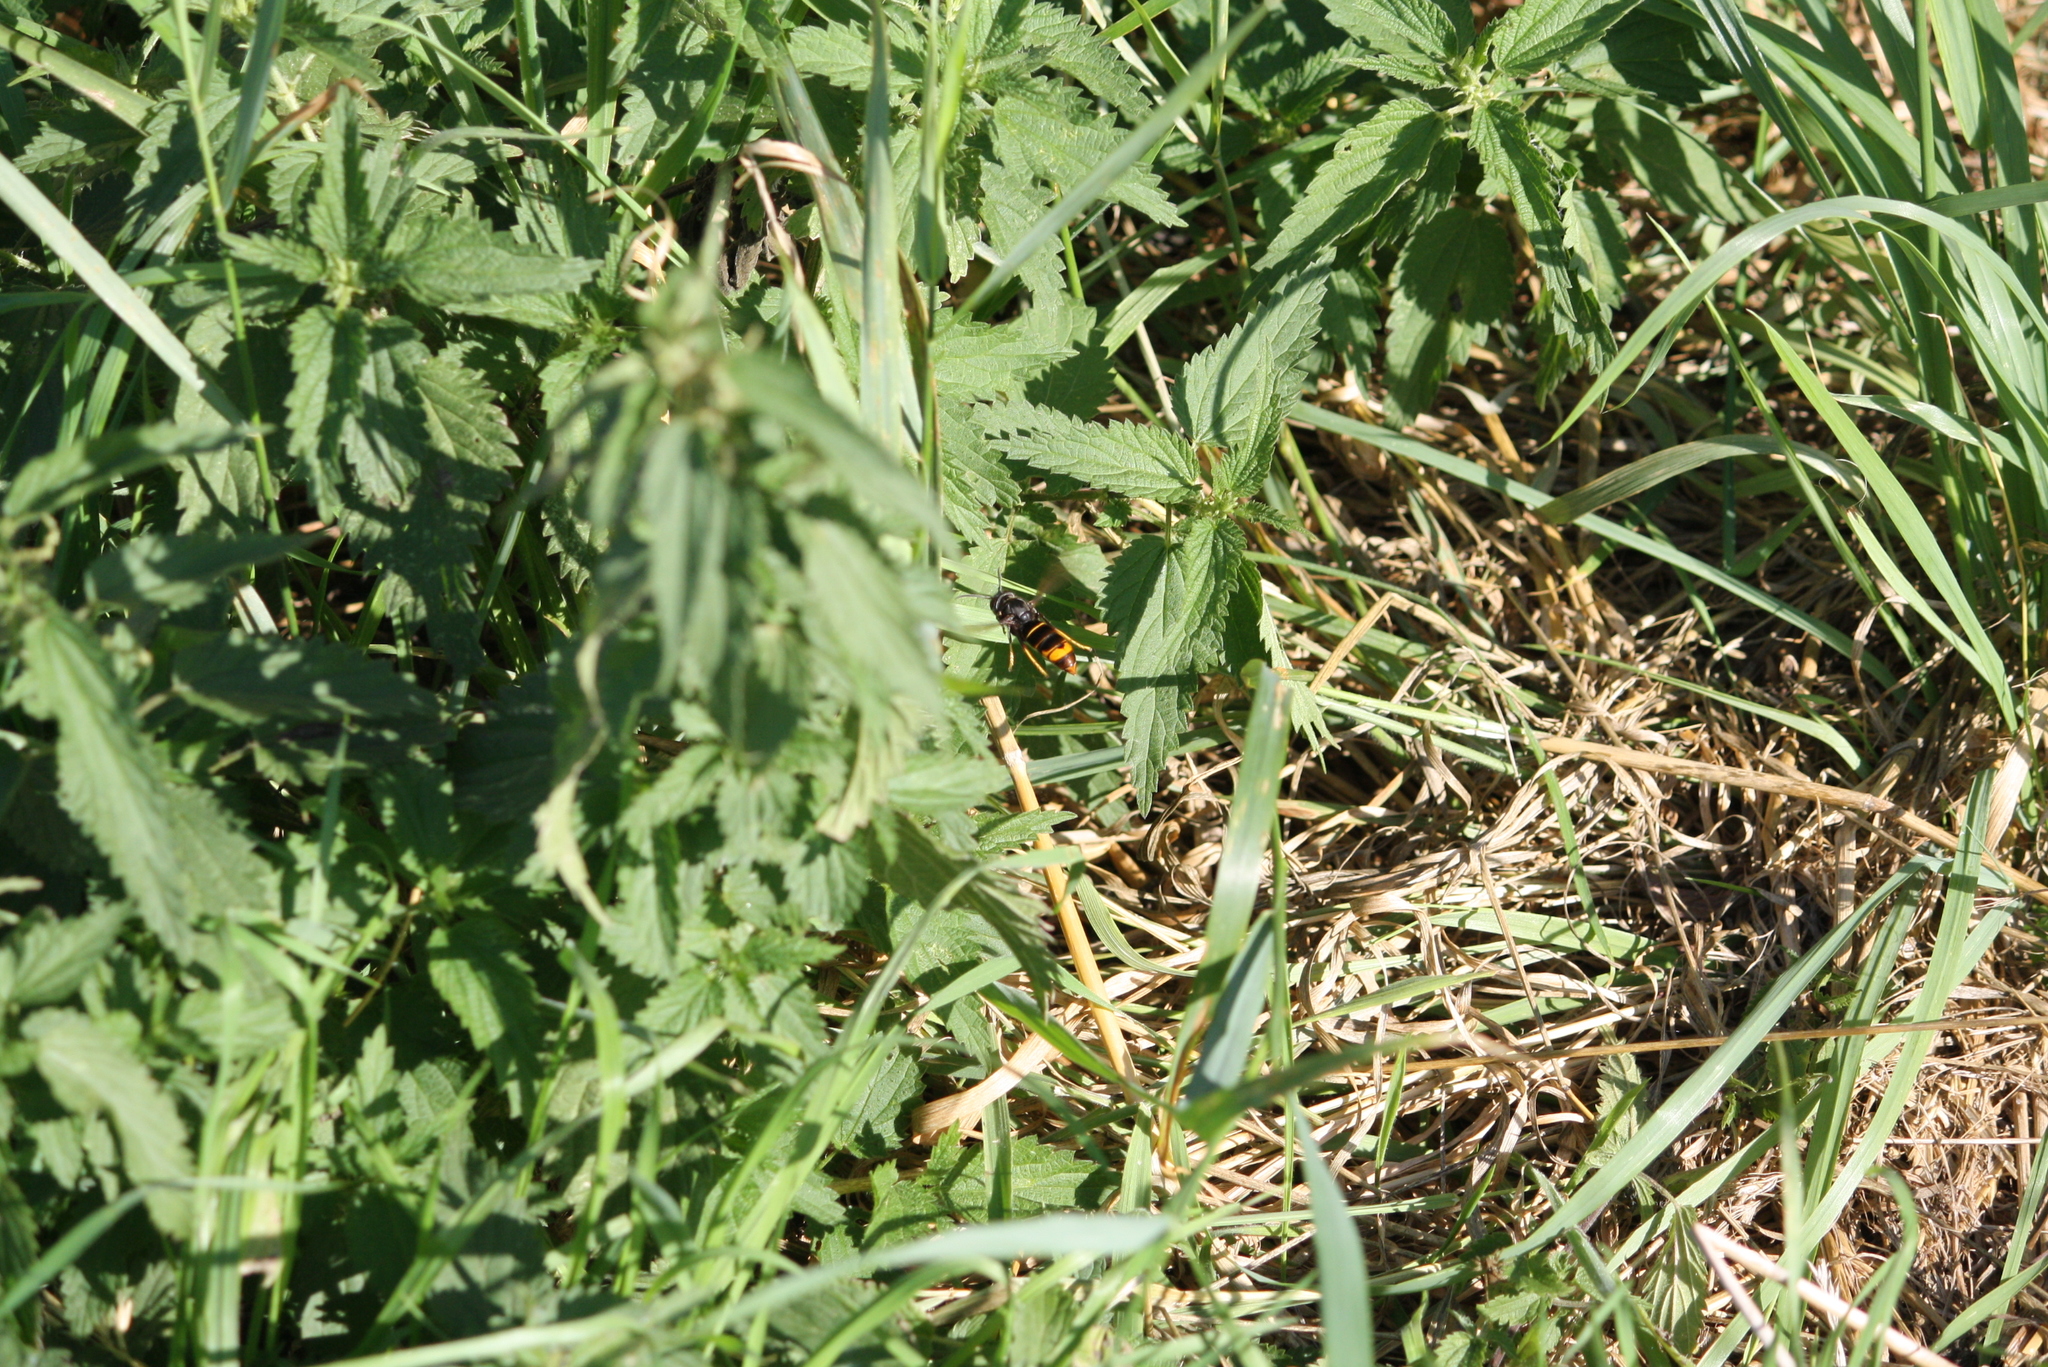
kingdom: Animalia
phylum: Arthropoda
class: Insecta
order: Hymenoptera
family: Vespidae
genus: Vespa
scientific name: Vespa velutina
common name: Asian hornet
